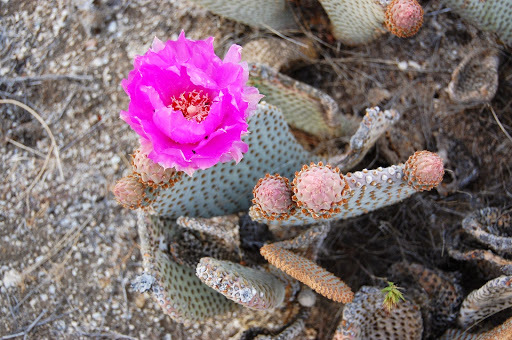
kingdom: Plantae
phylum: Tracheophyta
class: Magnoliopsida
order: Caryophyllales
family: Cactaceae
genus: Opuntia
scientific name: Opuntia basilaris
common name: Beavertail prickly-pear
